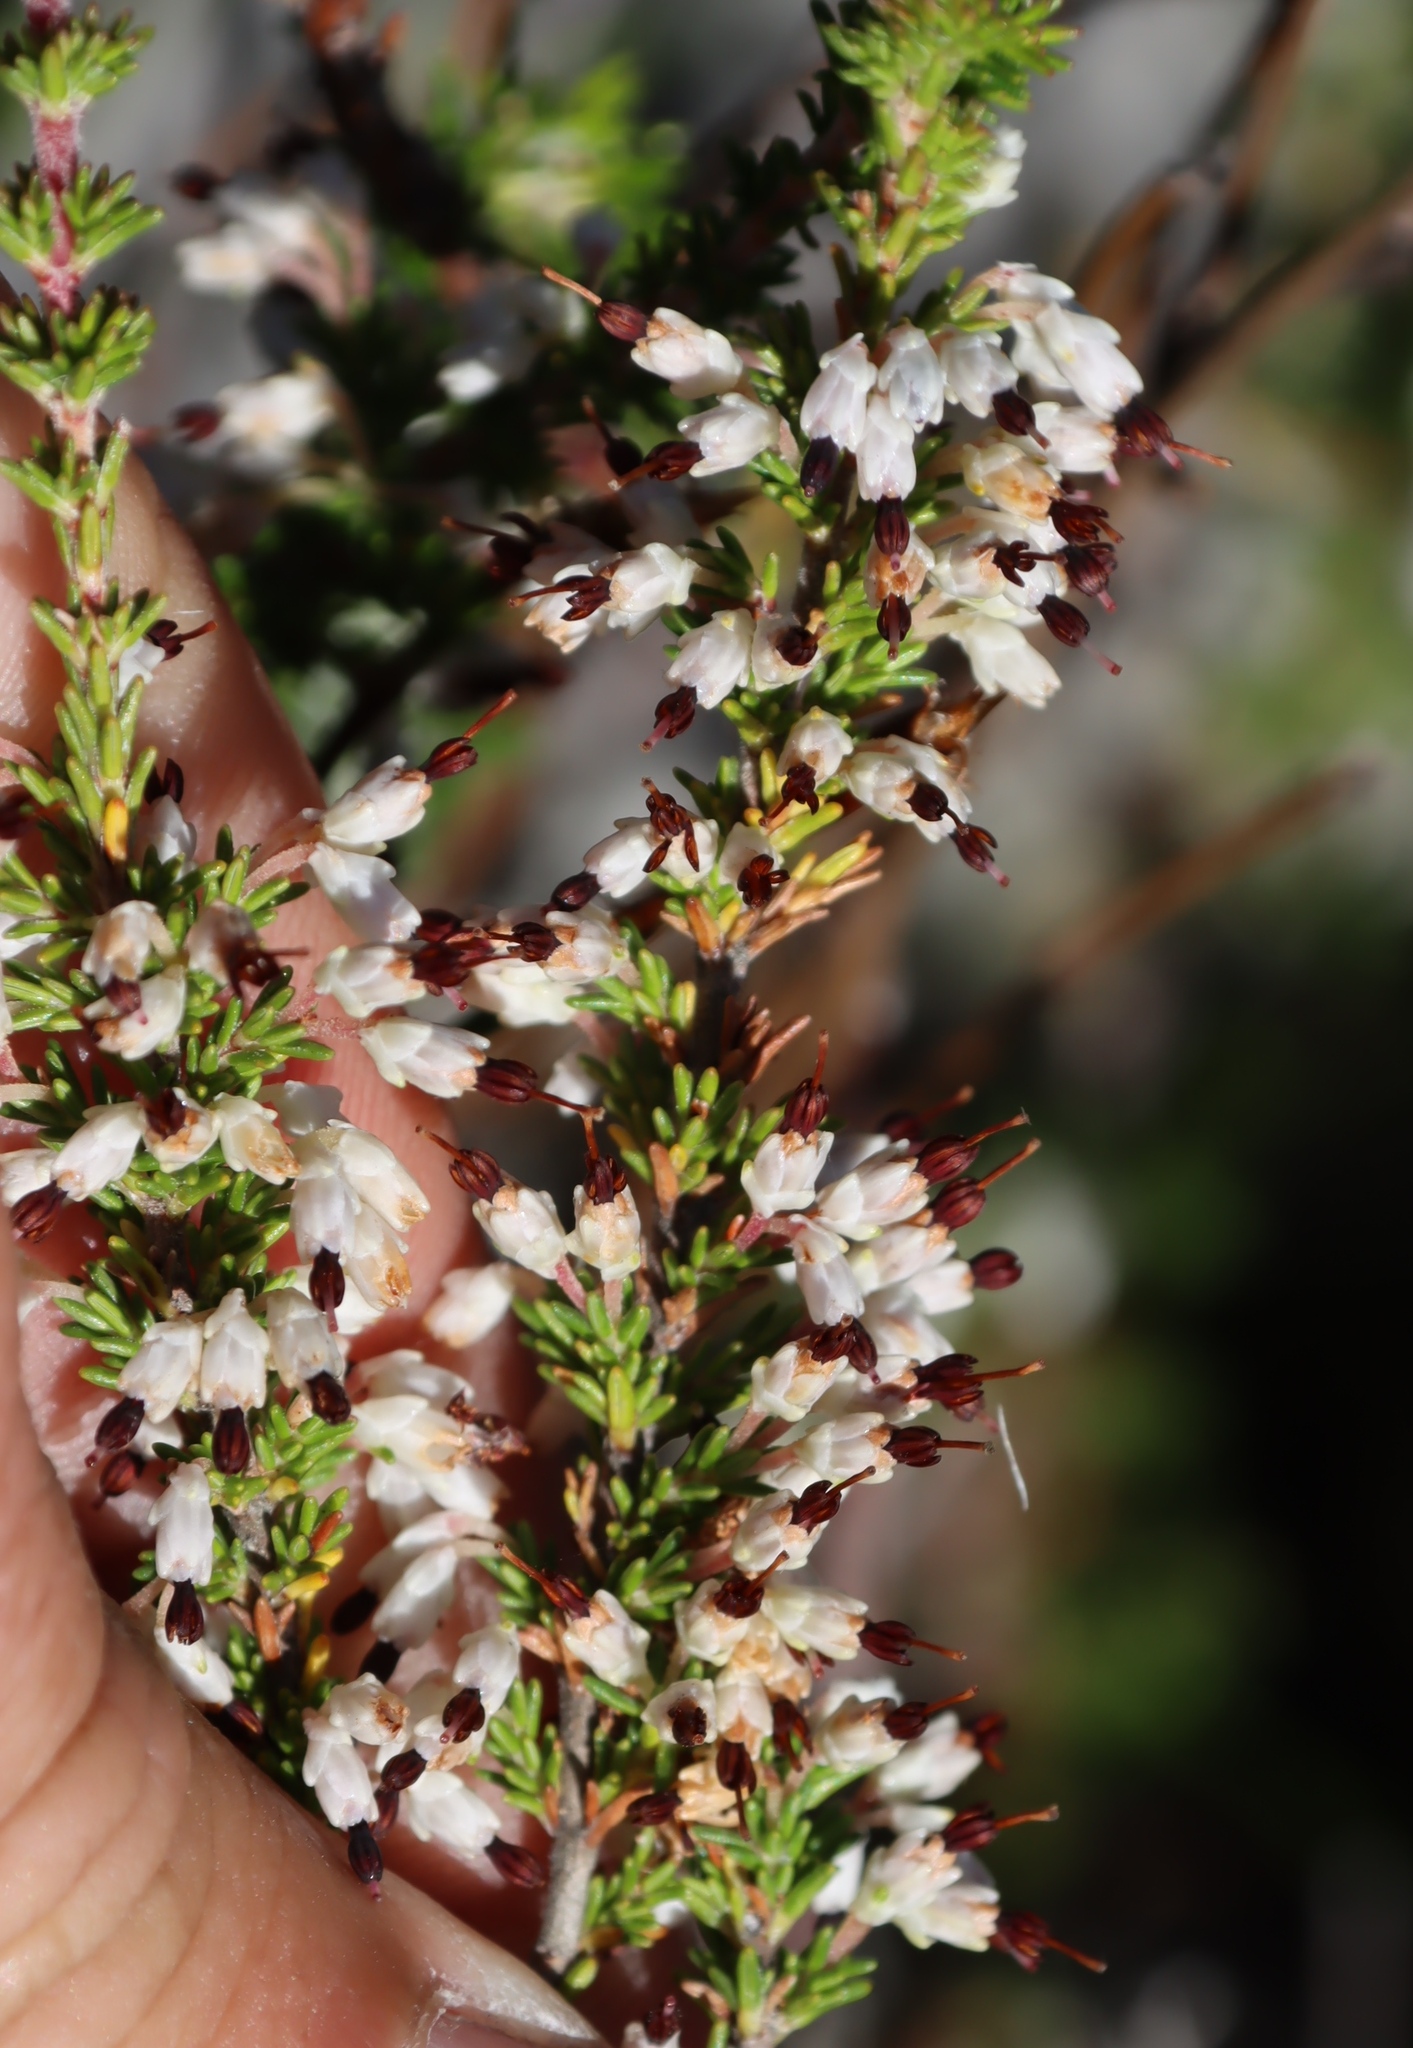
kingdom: Plantae
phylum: Tracheophyta
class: Magnoliopsida
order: Ericales
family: Ericaceae
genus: Erica
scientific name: Erica imbricata
